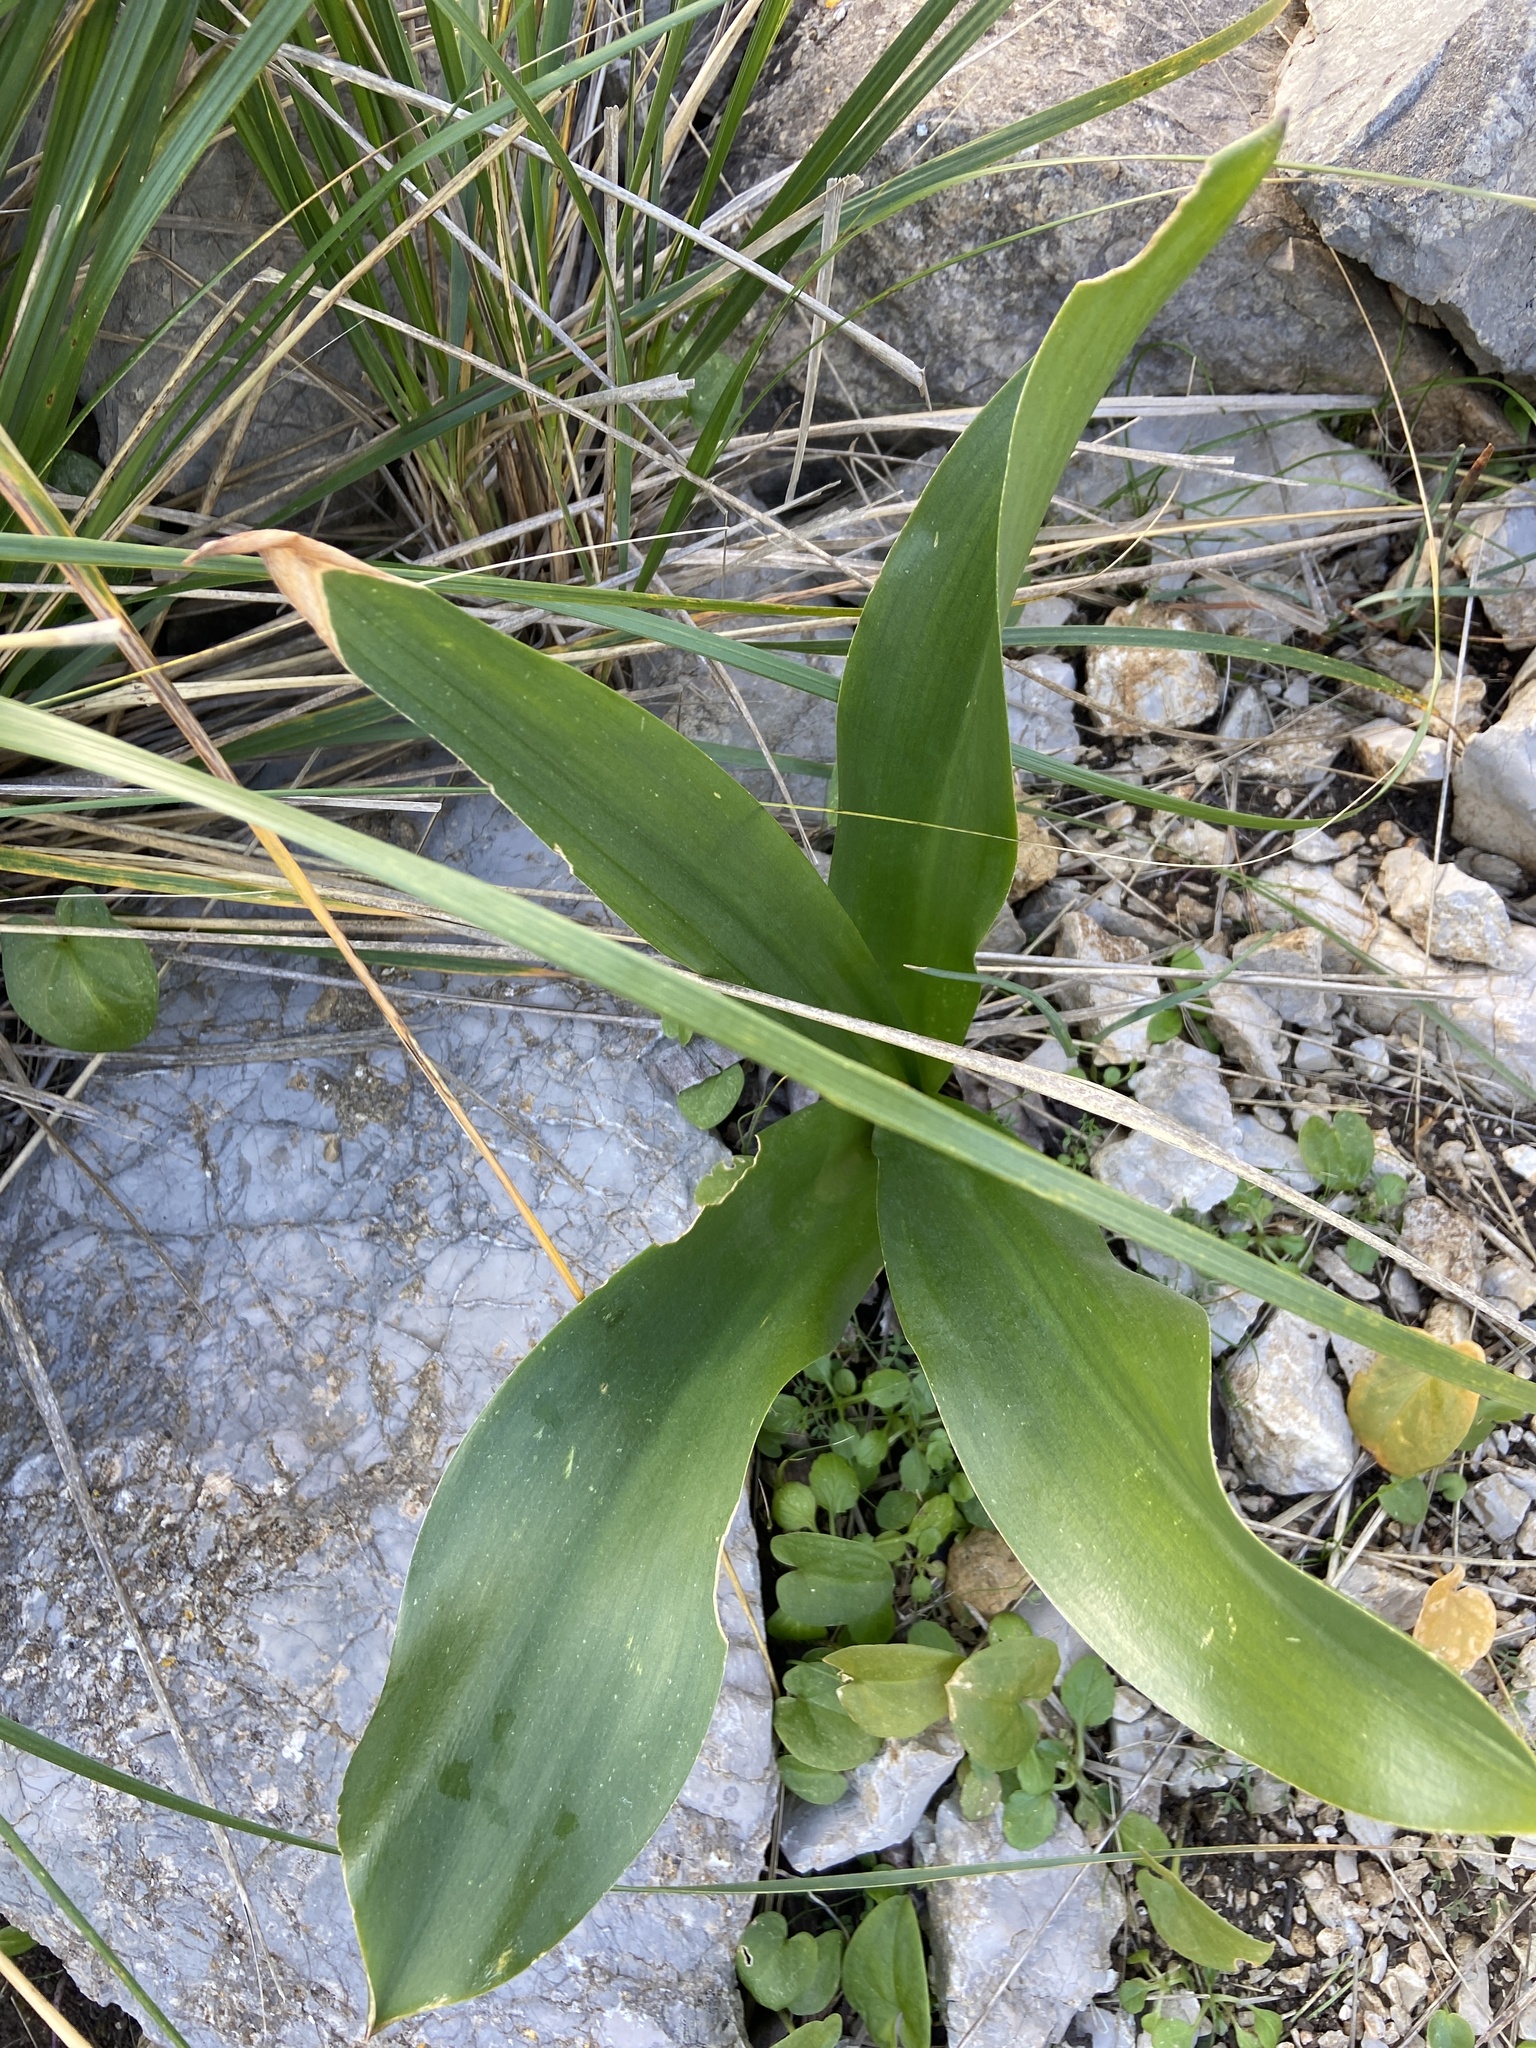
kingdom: Plantae
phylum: Tracheophyta
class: Liliopsida
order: Asparagales
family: Asparagaceae
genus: Drimia
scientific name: Drimia maritima
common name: Maritime squill
